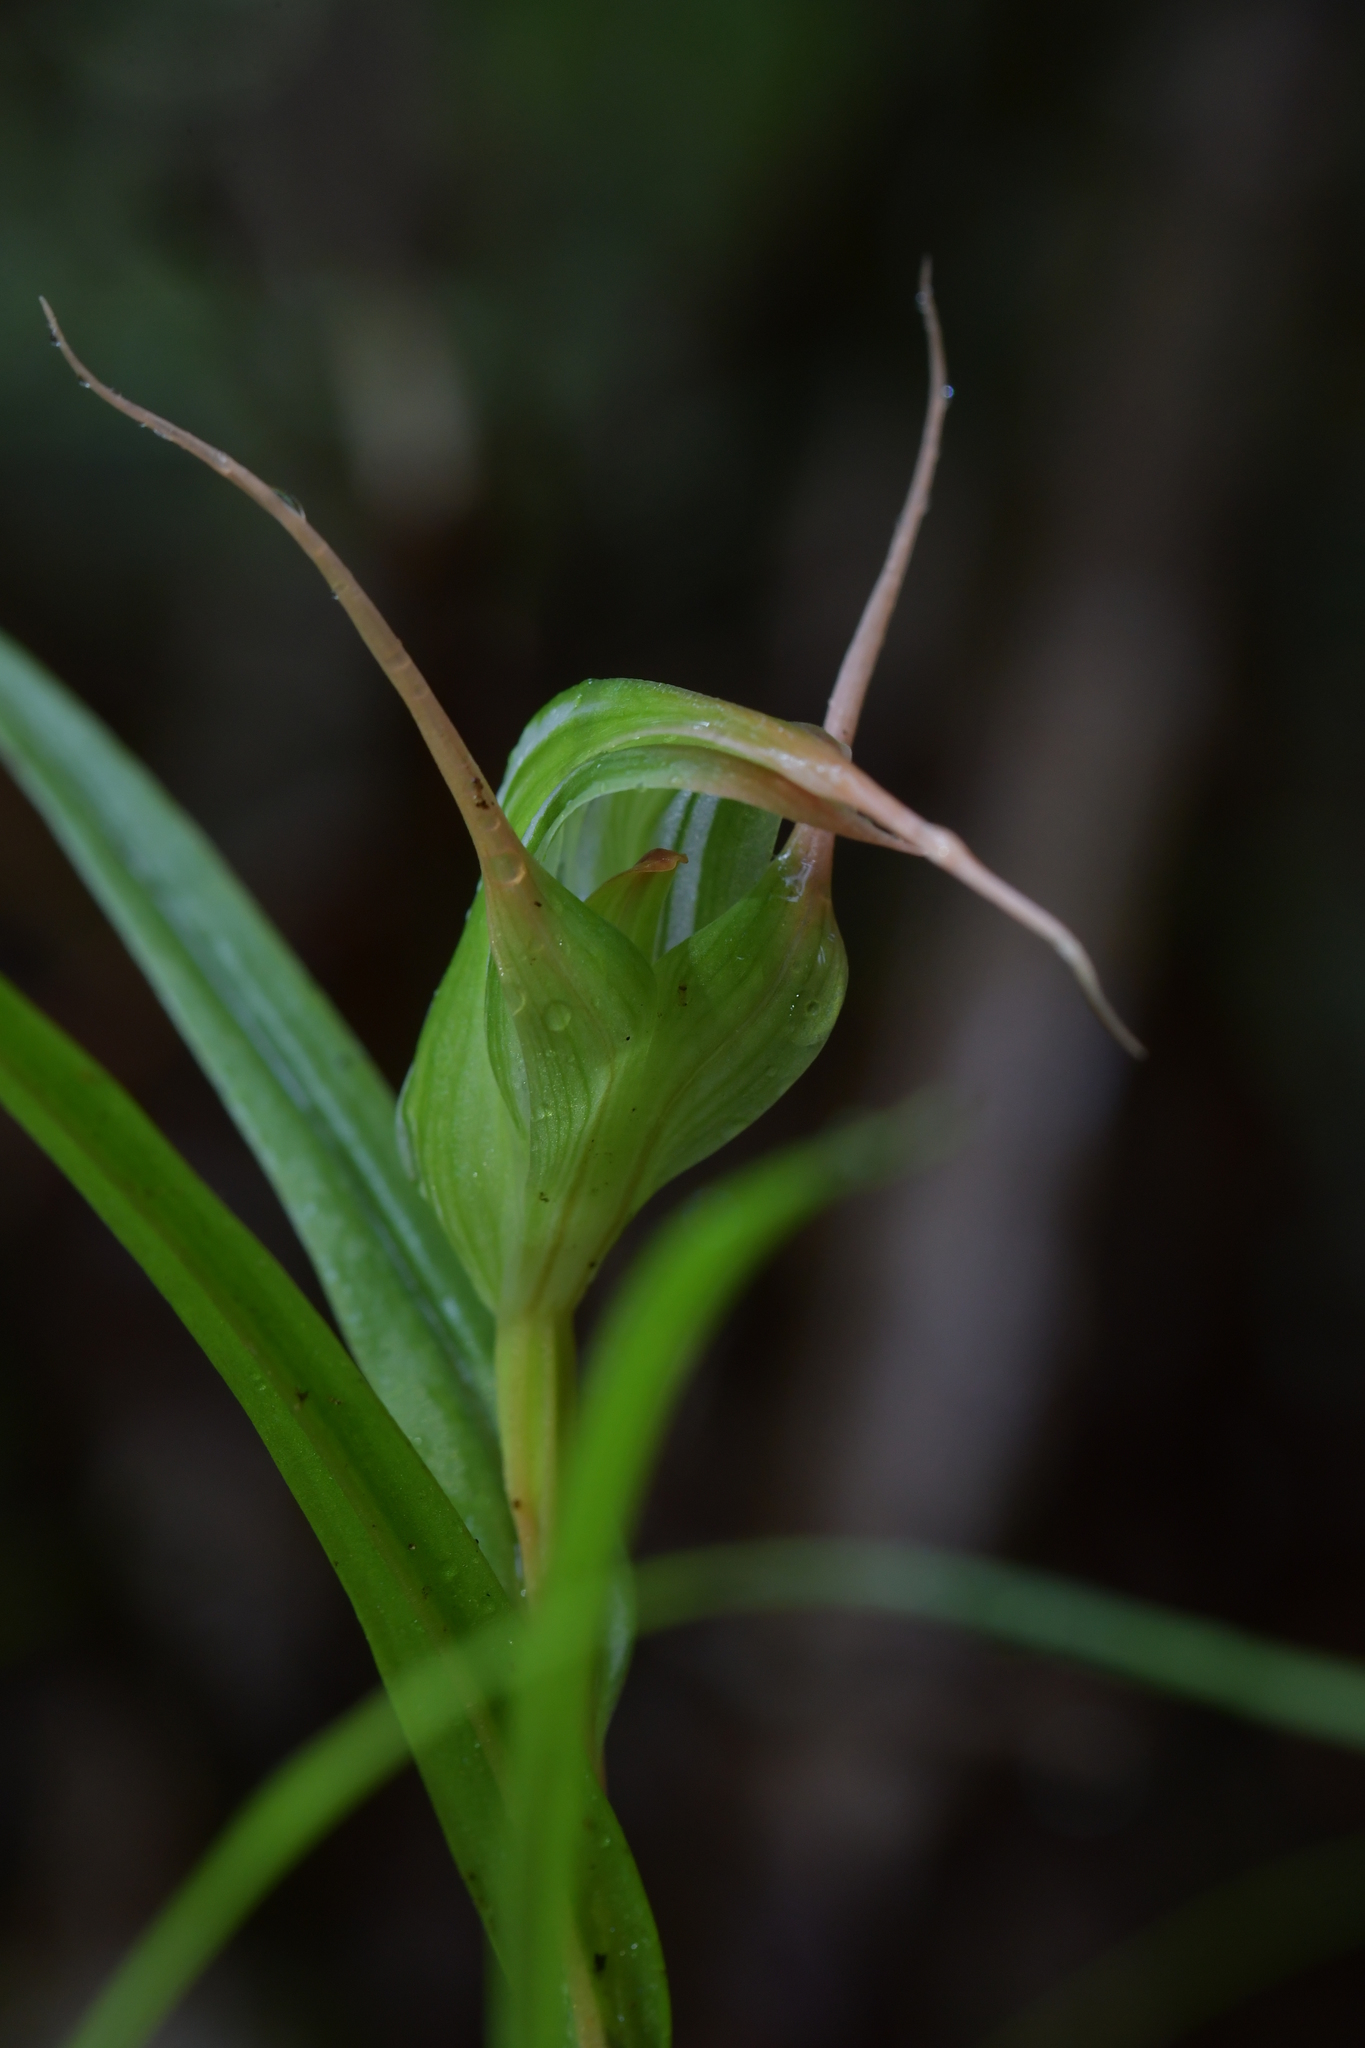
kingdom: Plantae
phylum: Tracheophyta
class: Liliopsida
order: Asparagales
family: Orchidaceae
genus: Pterostylis
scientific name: Pterostylis banksii
